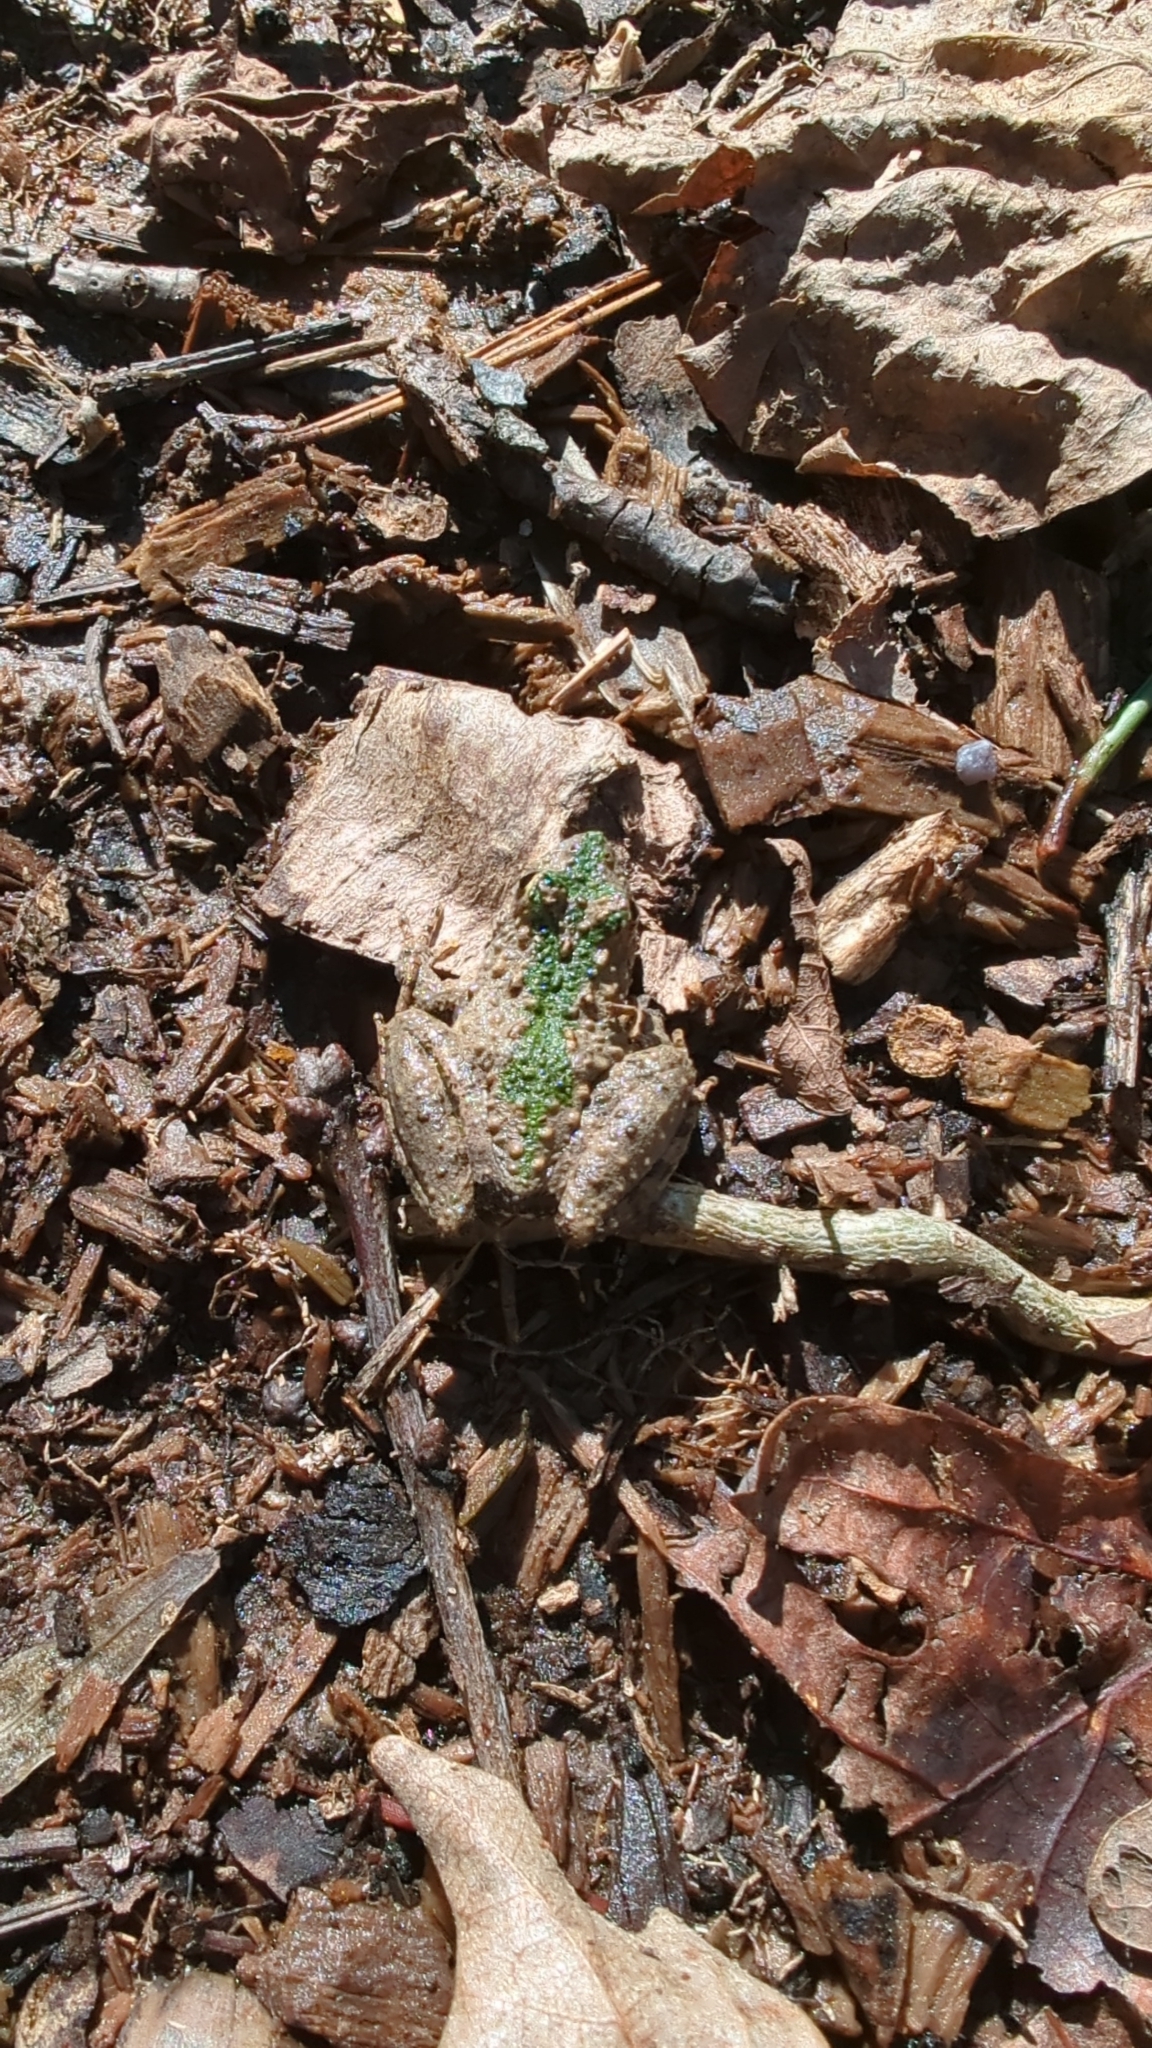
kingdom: Animalia
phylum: Chordata
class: Amphibia
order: Anura
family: Hylidae
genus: Acris
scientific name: Acris crepitans
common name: Northern cricket frog
